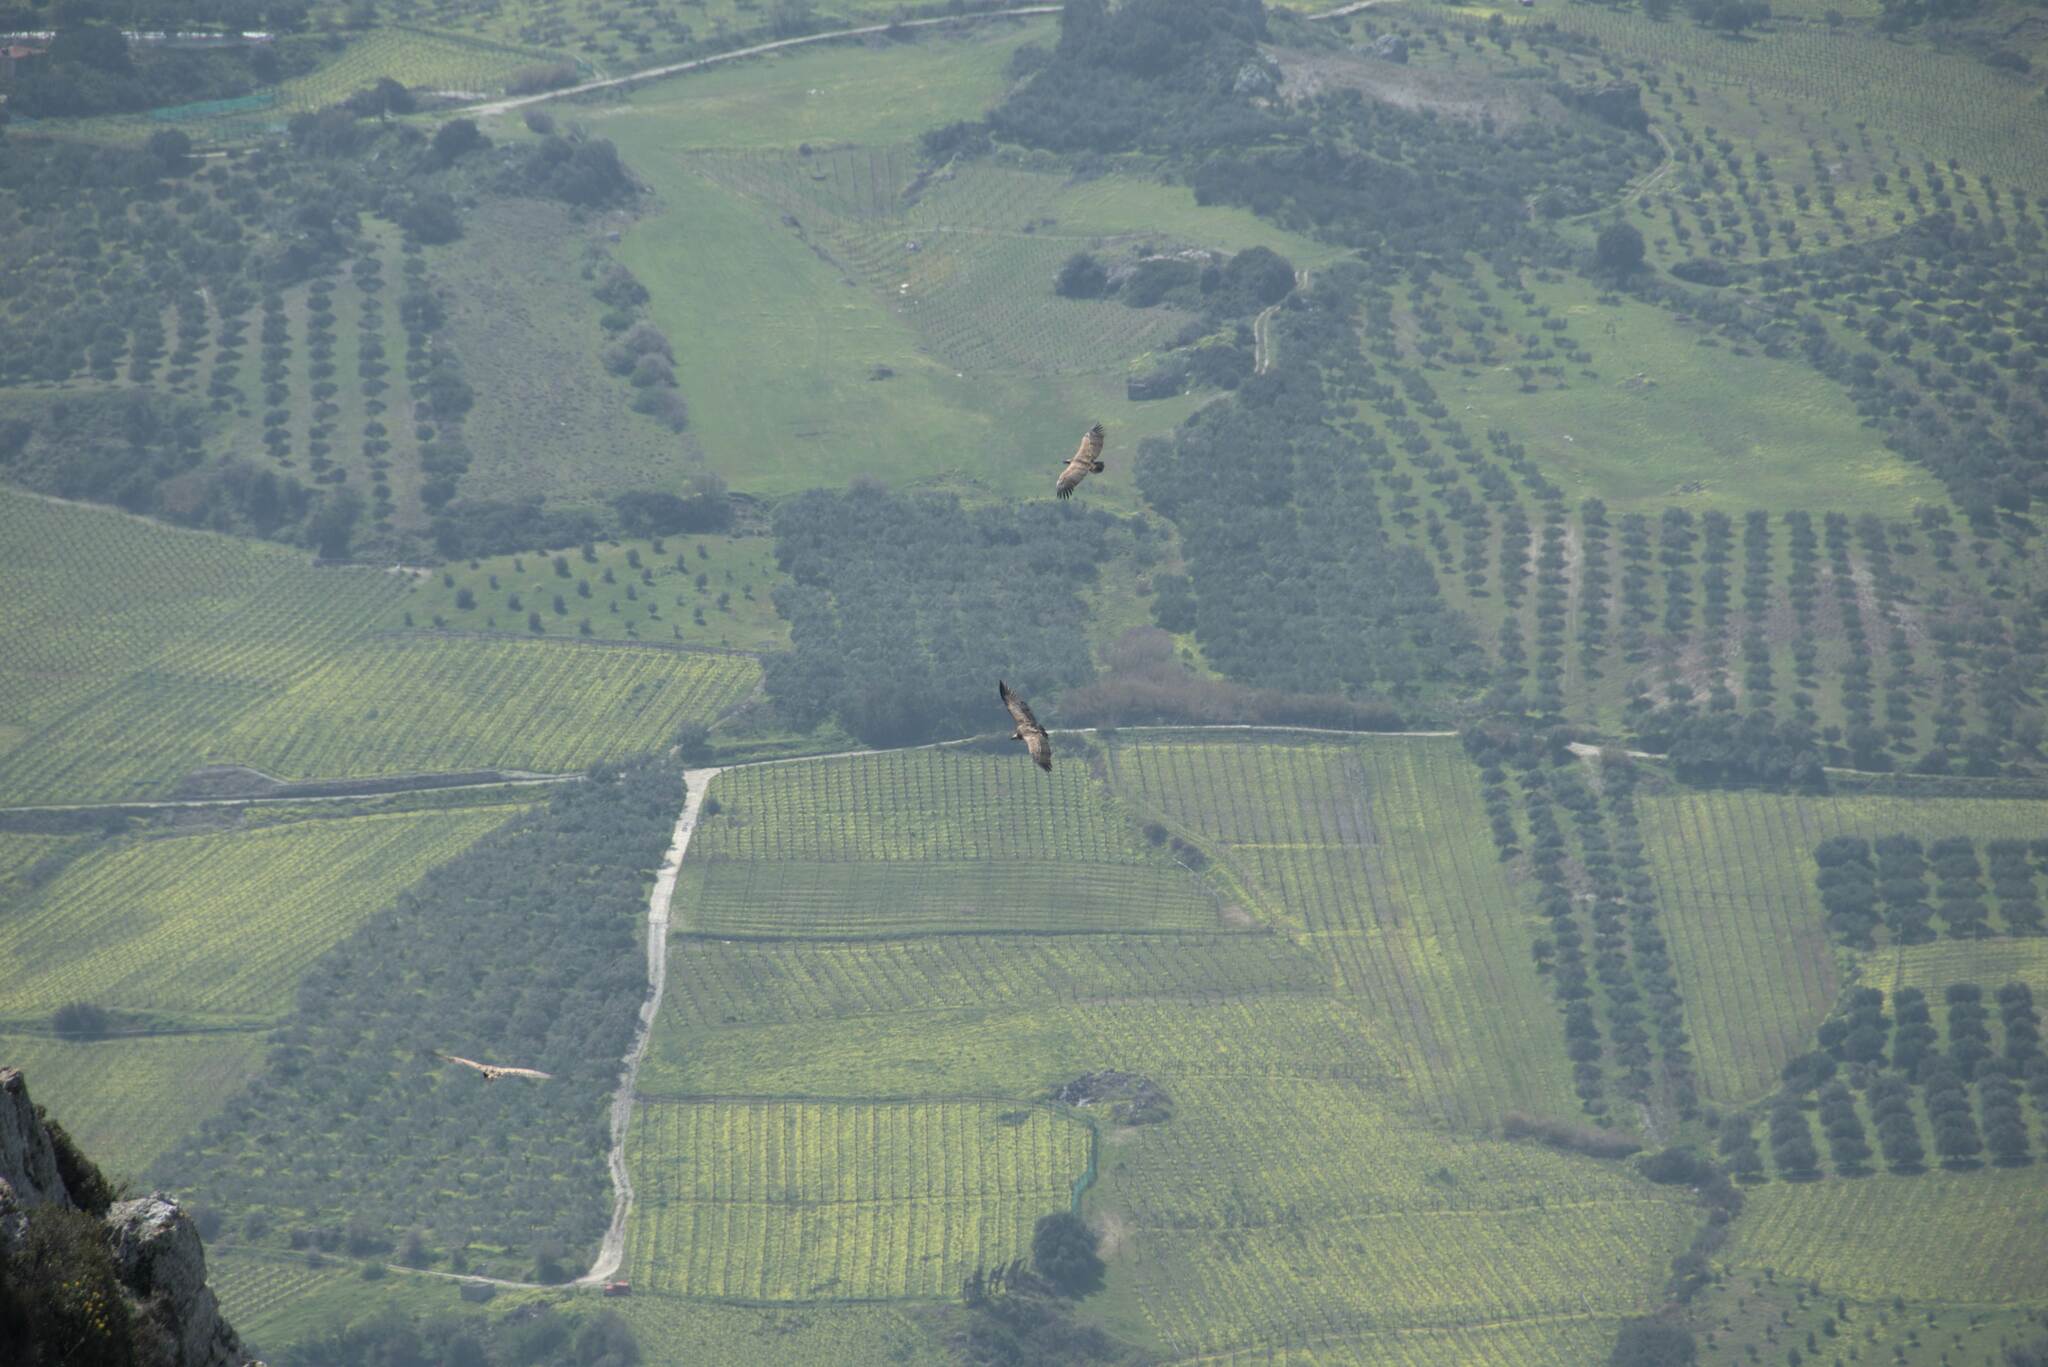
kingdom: Animalia
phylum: Chordata
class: Aves
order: Accipitriformes
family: Accipitridae
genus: Gyps
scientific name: Gyps fulvus
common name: Griffon vulture
